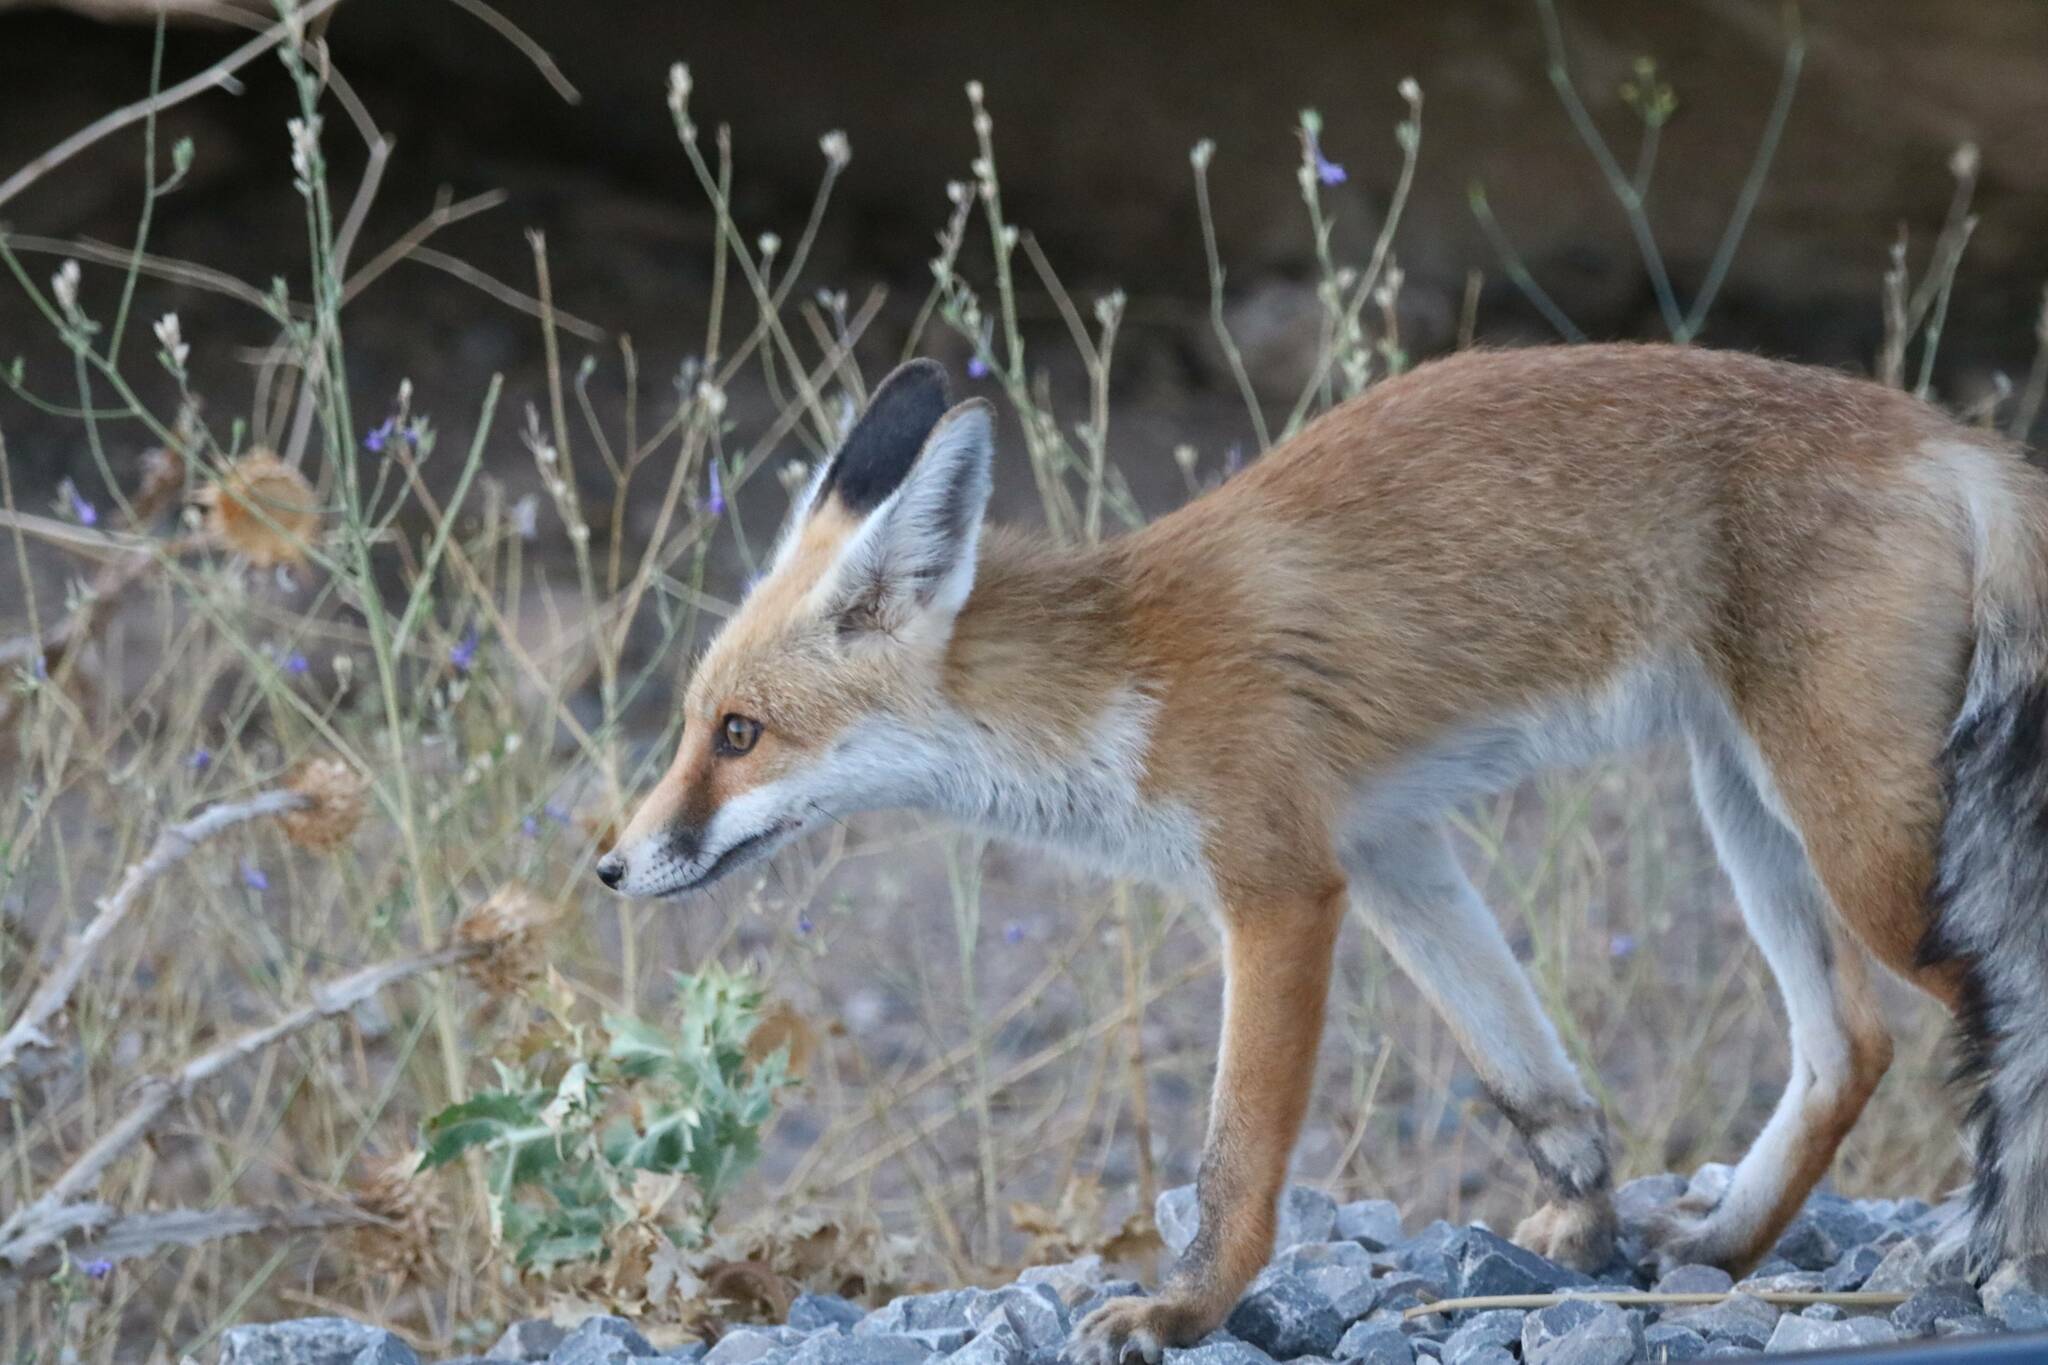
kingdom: Animalia
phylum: Chordata
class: Mammalia
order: Carnivora
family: Canidae
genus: Vulpes
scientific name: Vulpes vulpes
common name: Red fox
